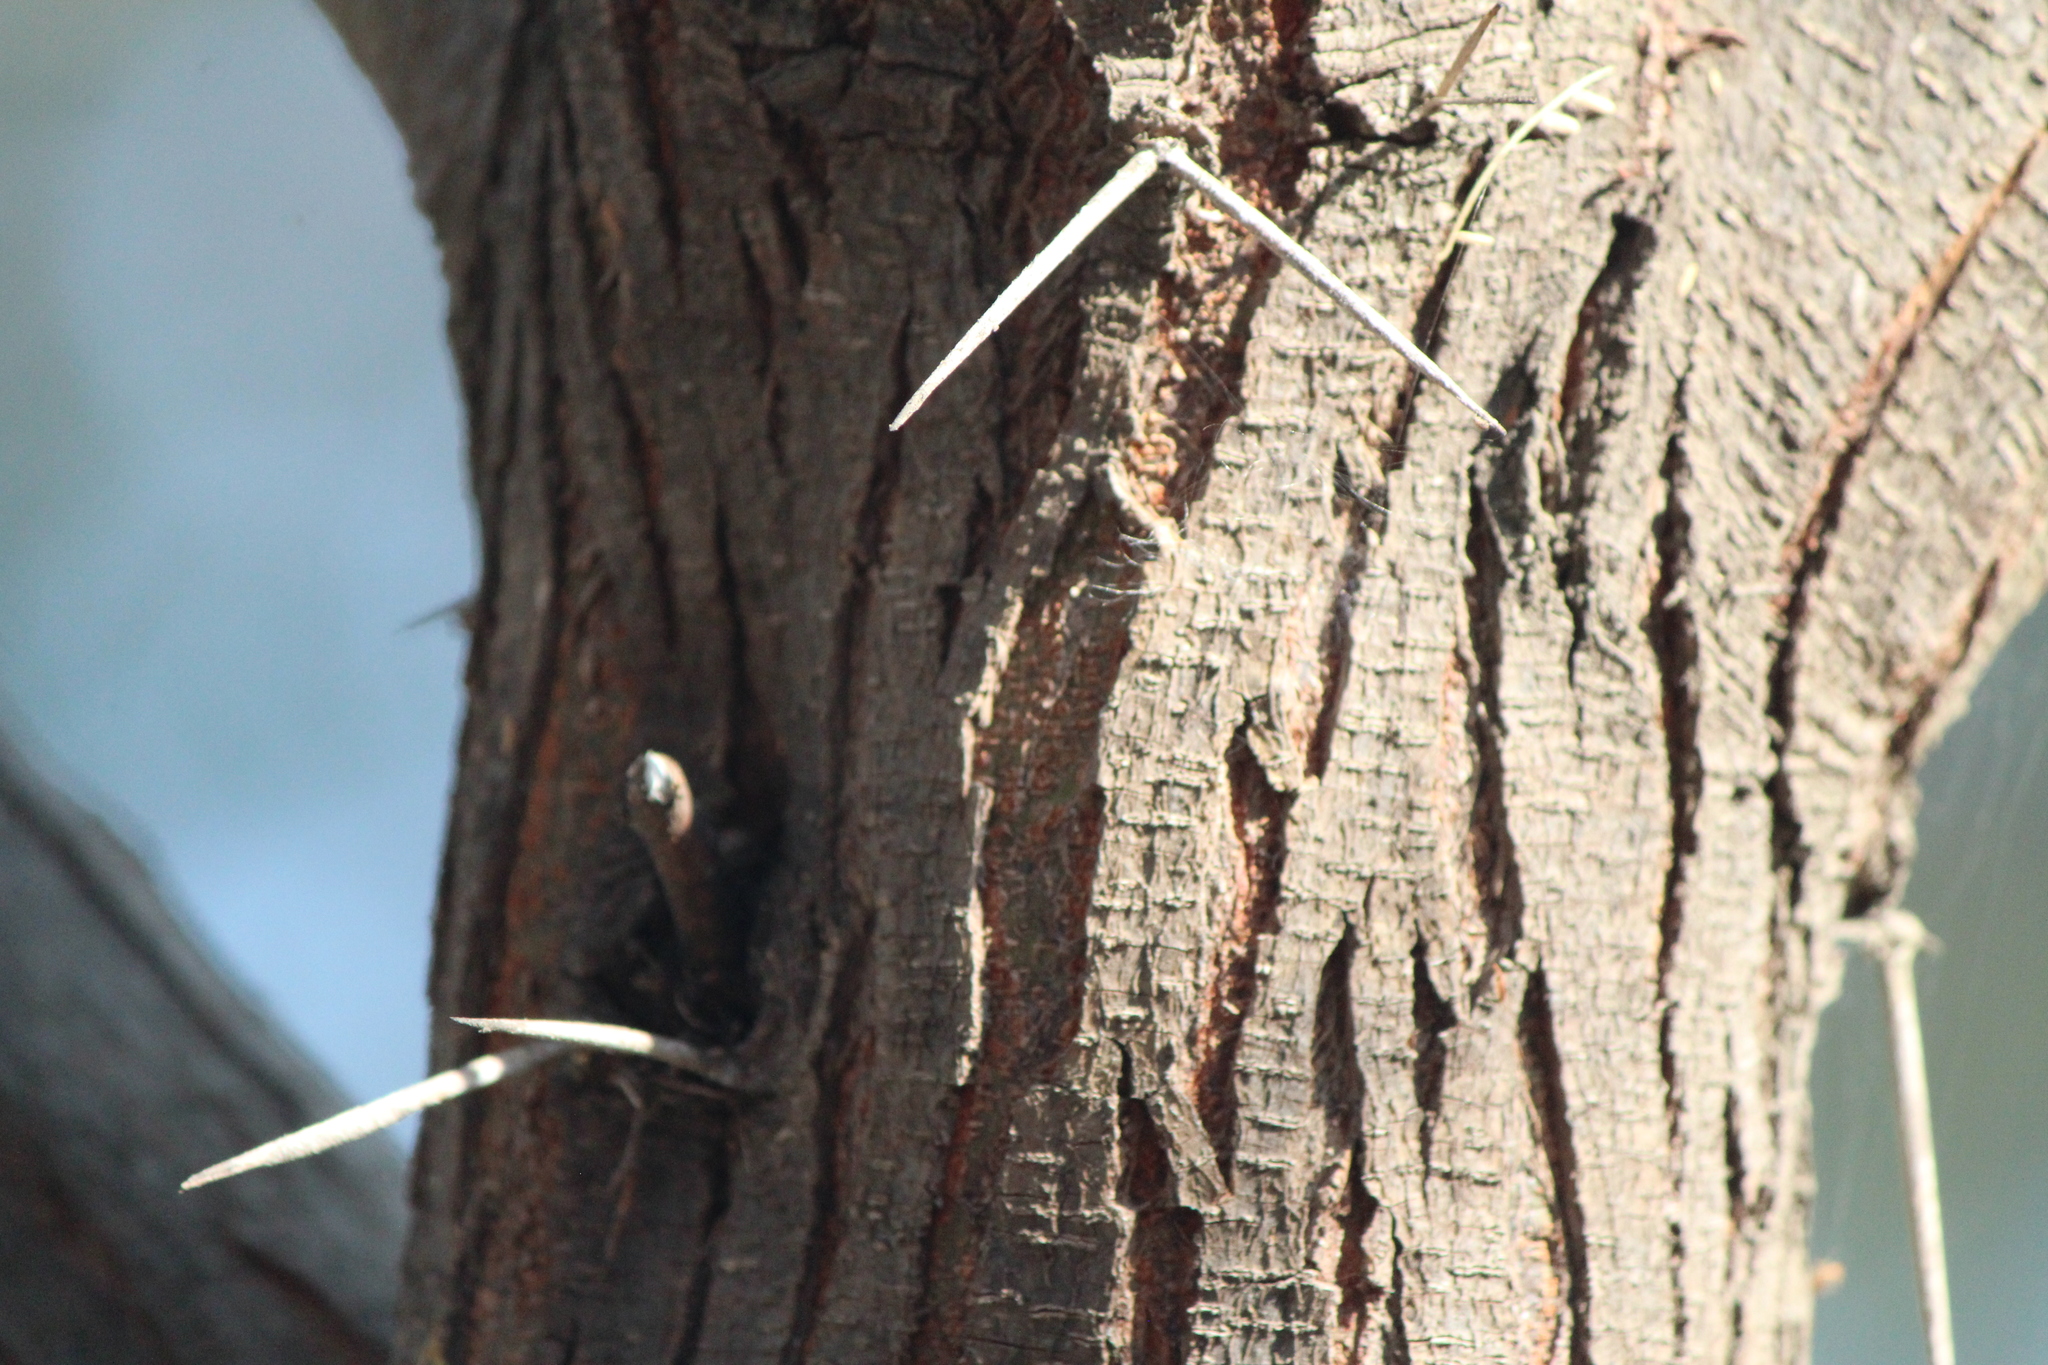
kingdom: Plantae
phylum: Tracheophyta
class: Magnoliopsida
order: Fabales
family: Fabaceae
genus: Vachellia
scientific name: Vachellia farnesiana
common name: Sweet acacia
